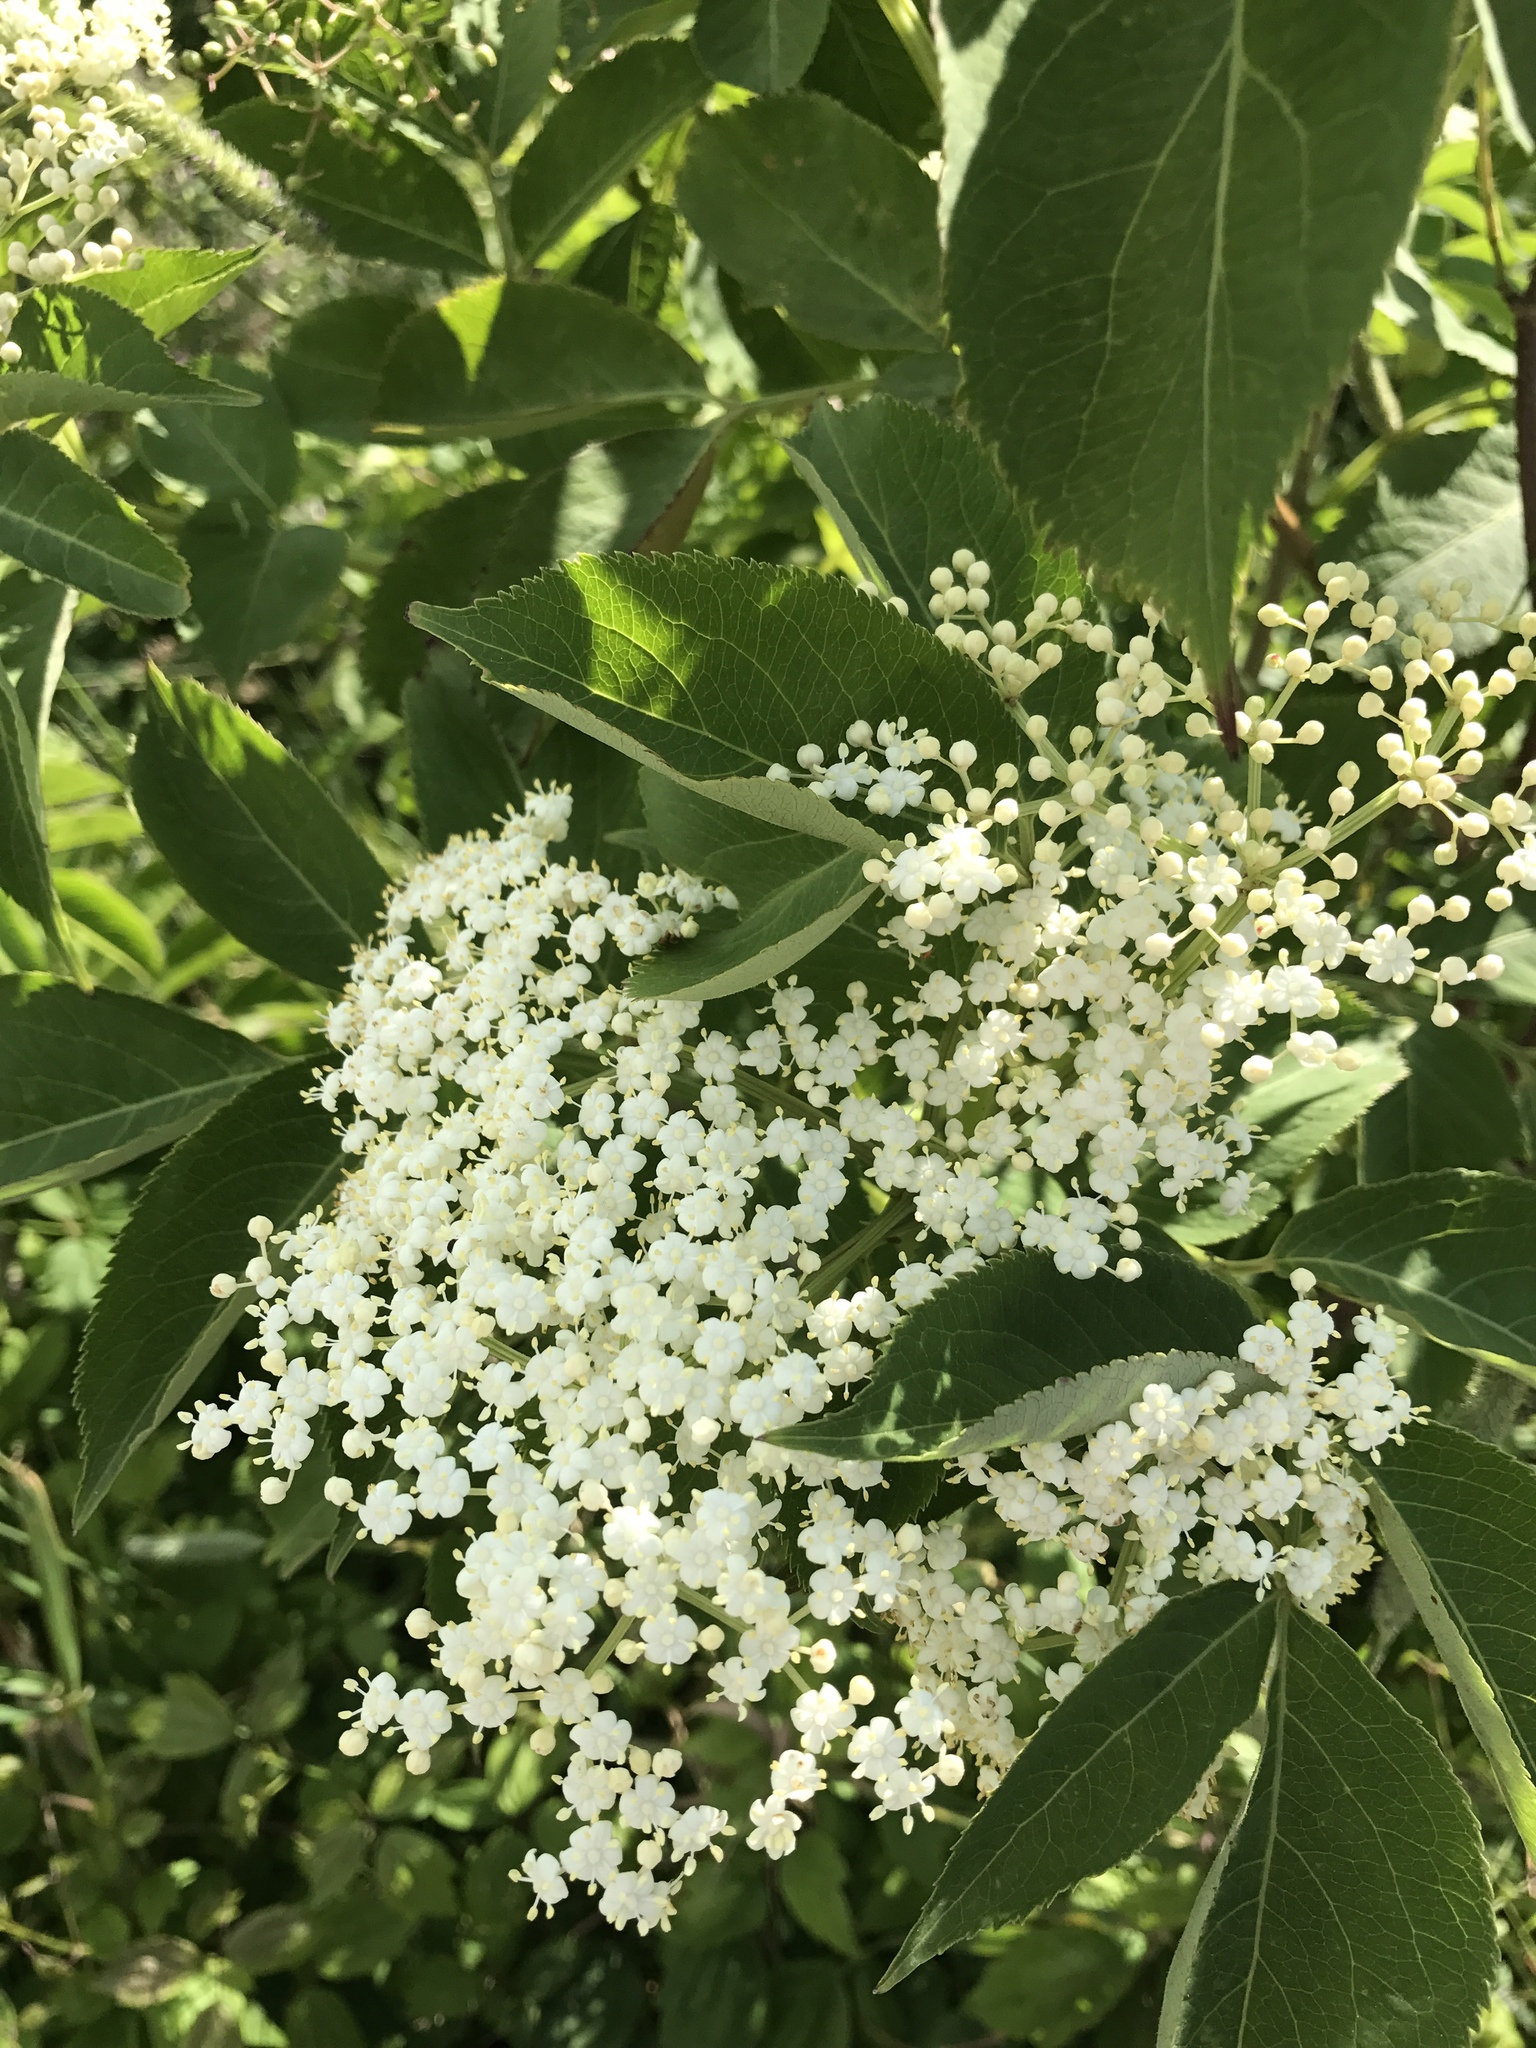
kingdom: Plantae
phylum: Tracheophyta
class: Magnoliopsida
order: Dipsacales
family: Viburnaceae
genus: Sambucus
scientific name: Sambucus canadensis
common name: American elder
